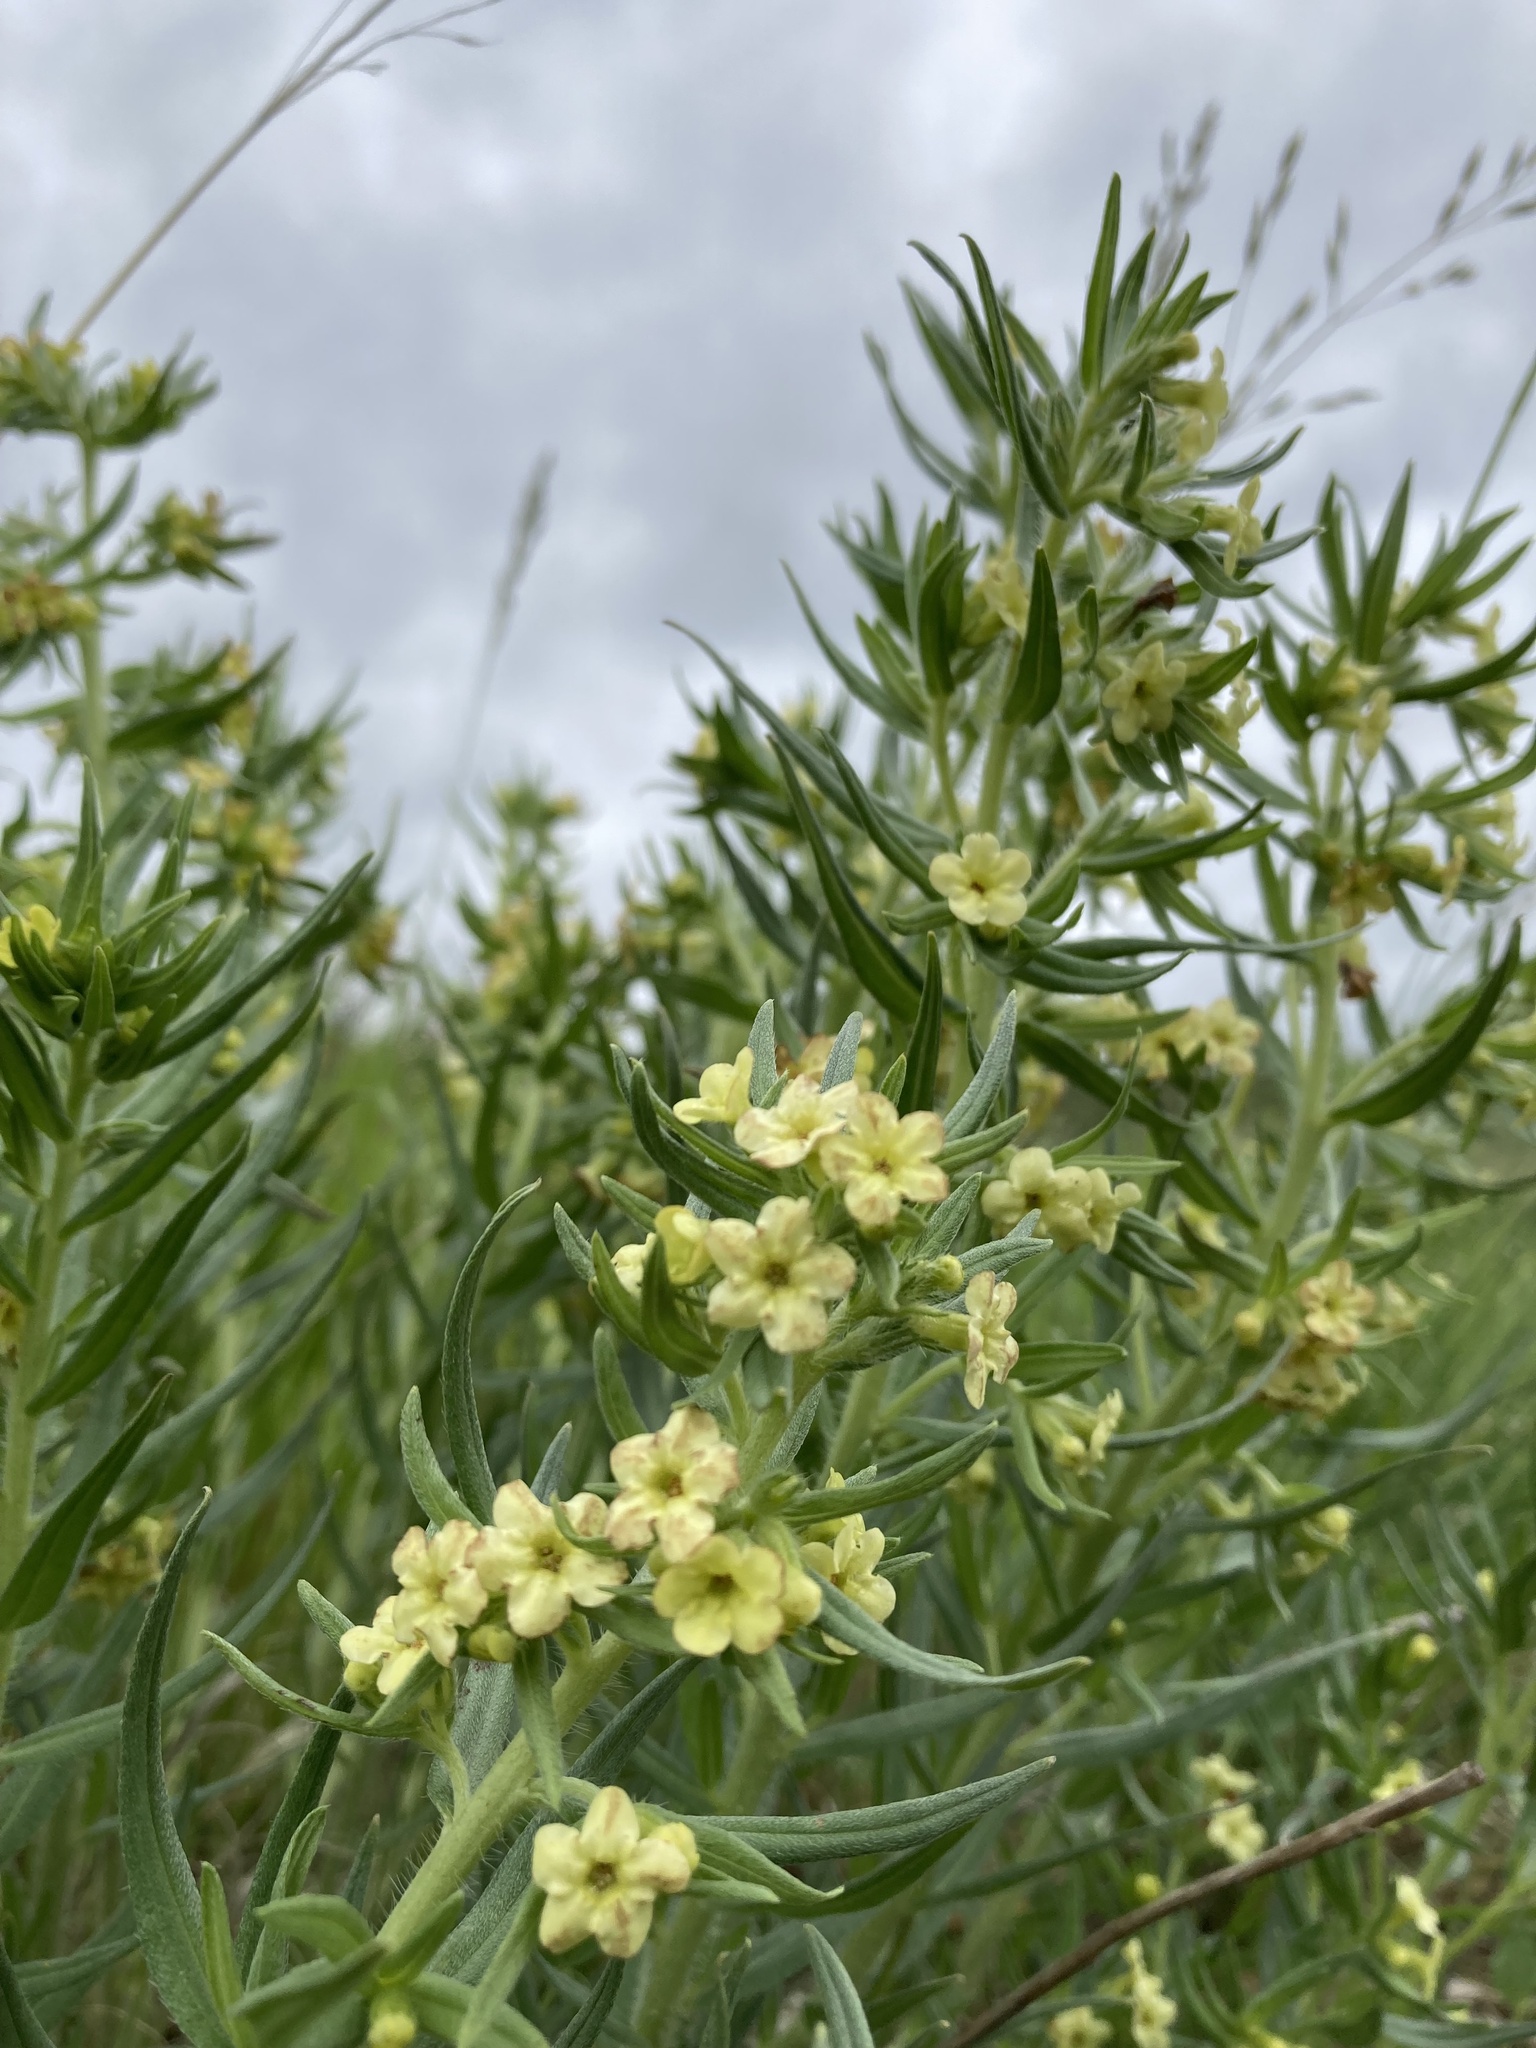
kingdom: Plantae
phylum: Tracheophyta
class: Magnoliopsida
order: Boraginales
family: Boraginaceae
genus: Lithospermum
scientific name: Lithospermum ruderale
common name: Western gromwell
